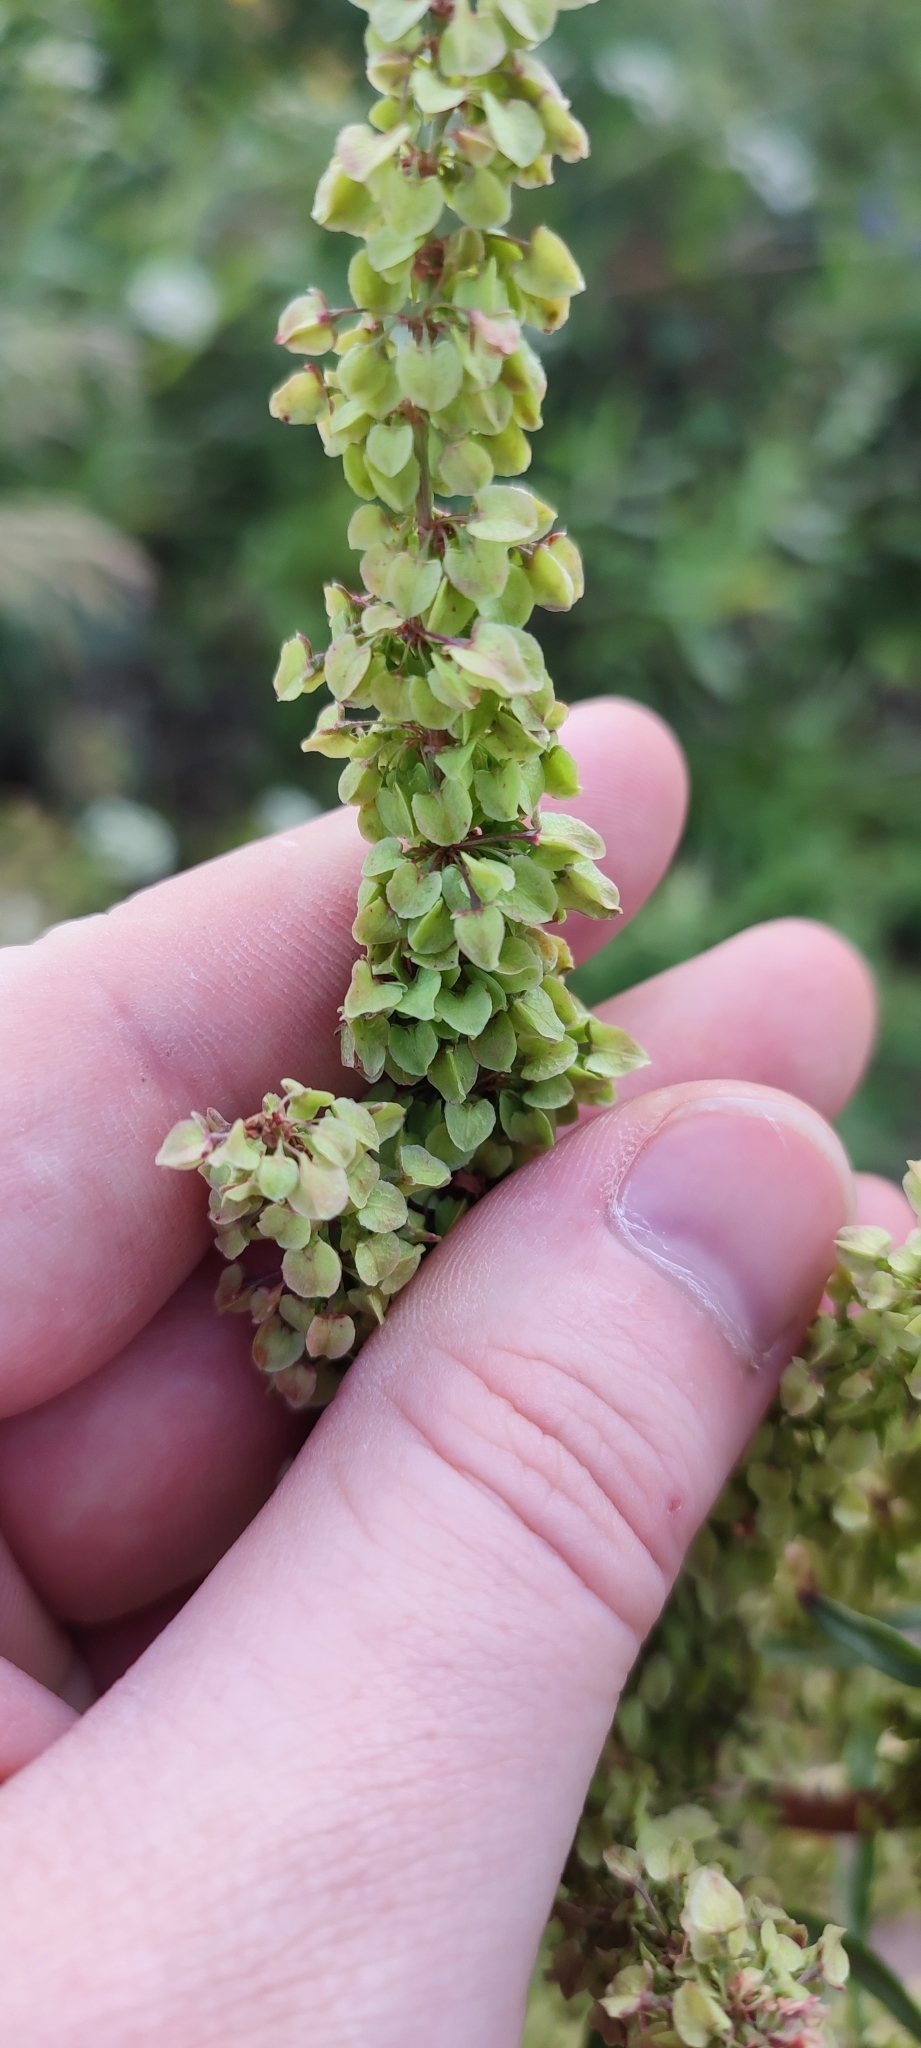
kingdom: Plantae
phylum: Tracheophyta
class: Magnoliopsida
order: Caryophyllales
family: Polygonaceae
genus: Rumex
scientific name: Rumex pseudonatronatus
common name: Field dock
